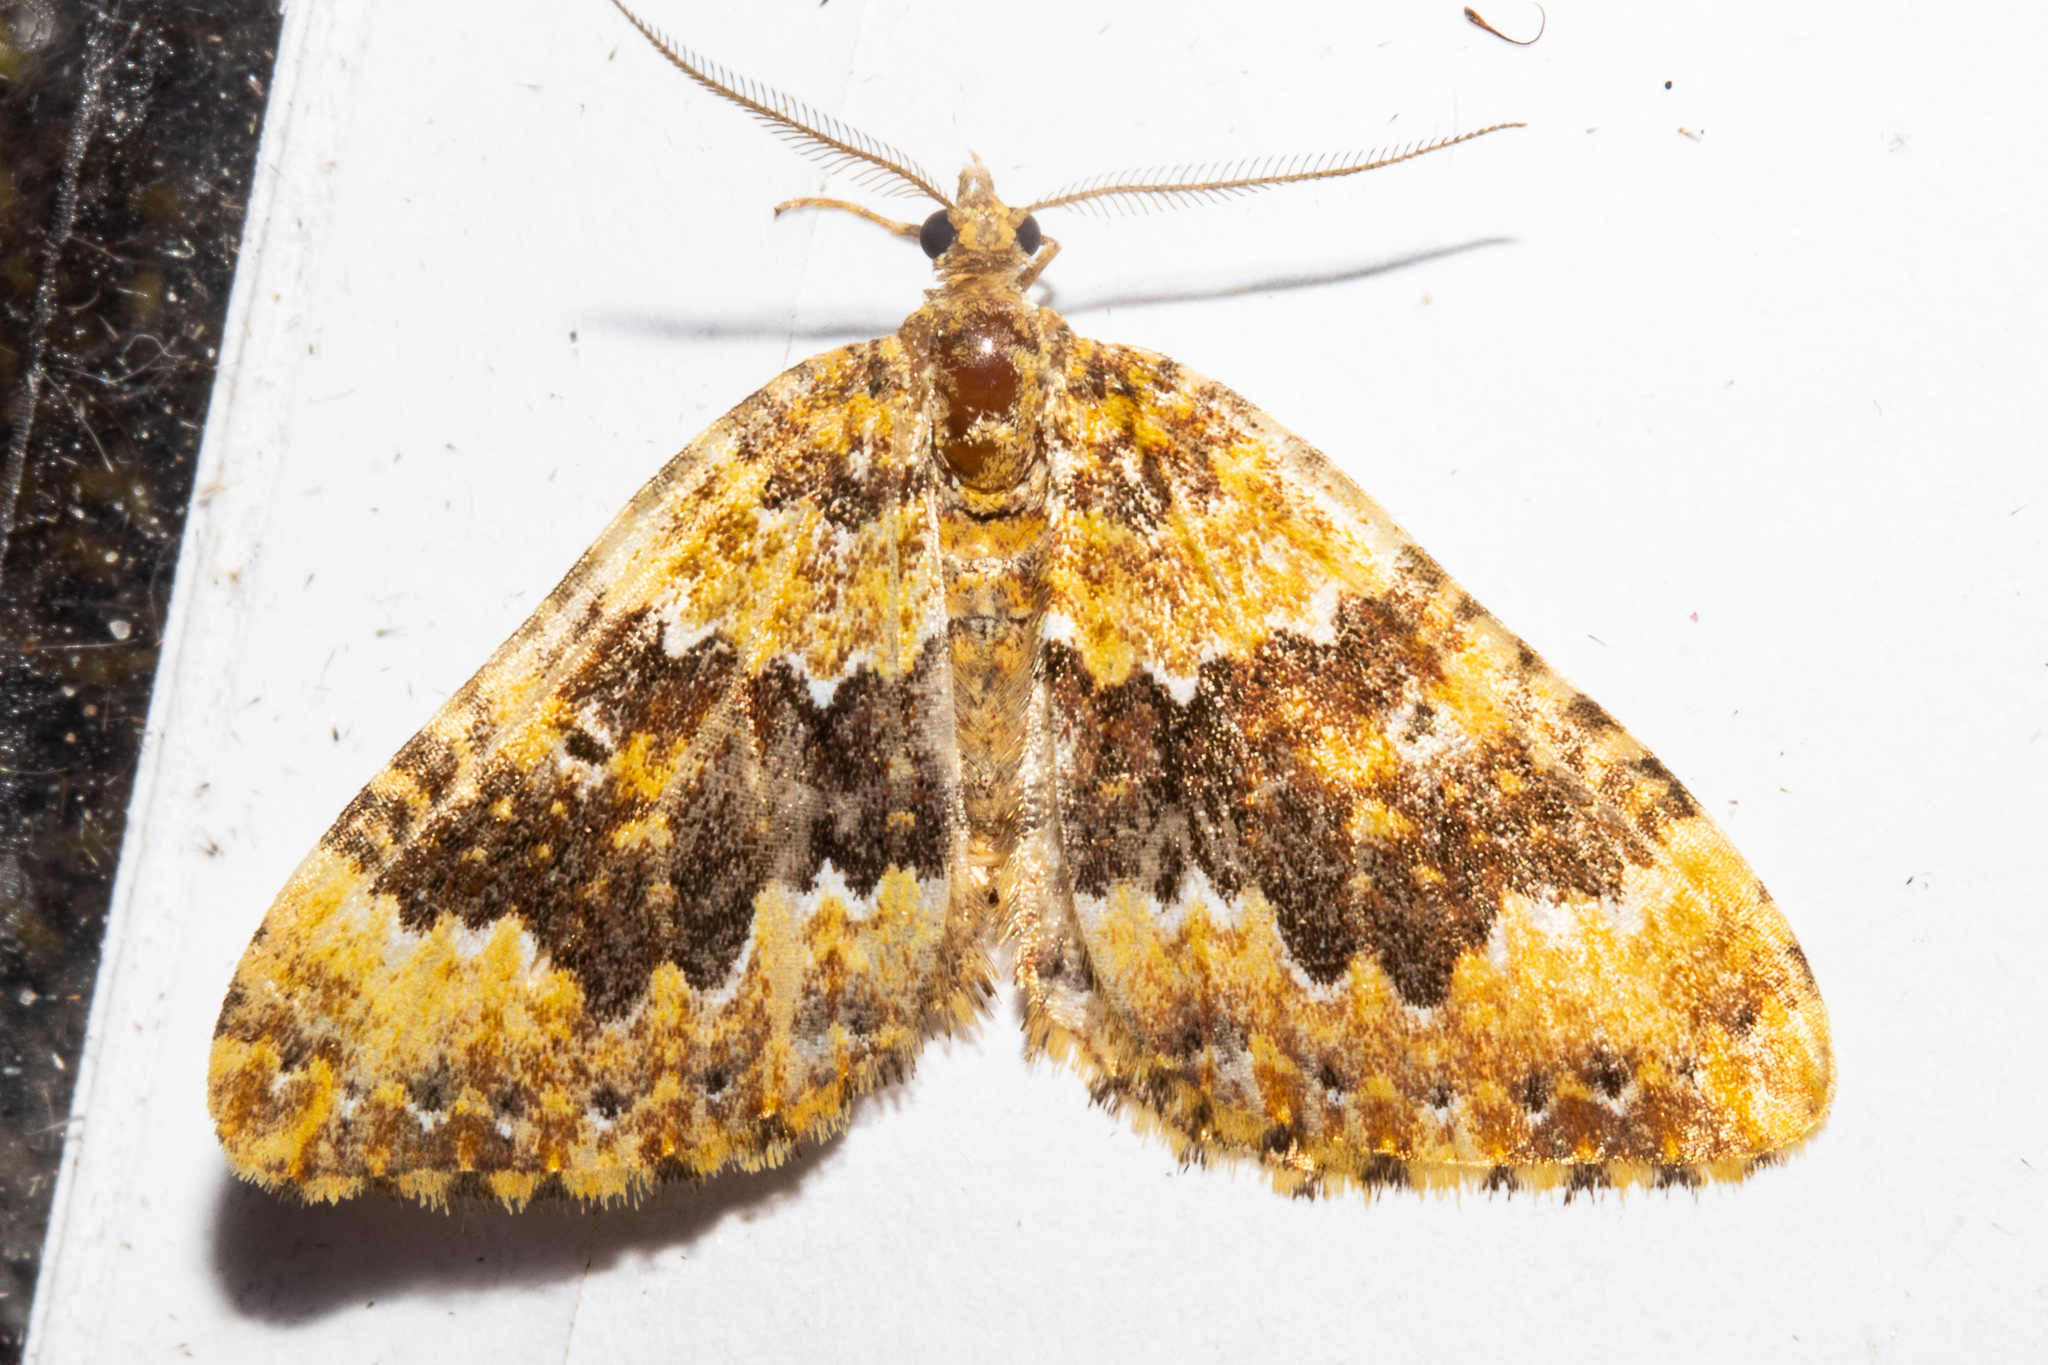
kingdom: Animalia
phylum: Arthropoda
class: Insecta
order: Lepidoptera
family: Geometridae
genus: Asaphodes
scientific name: Asaphodes prasinias
